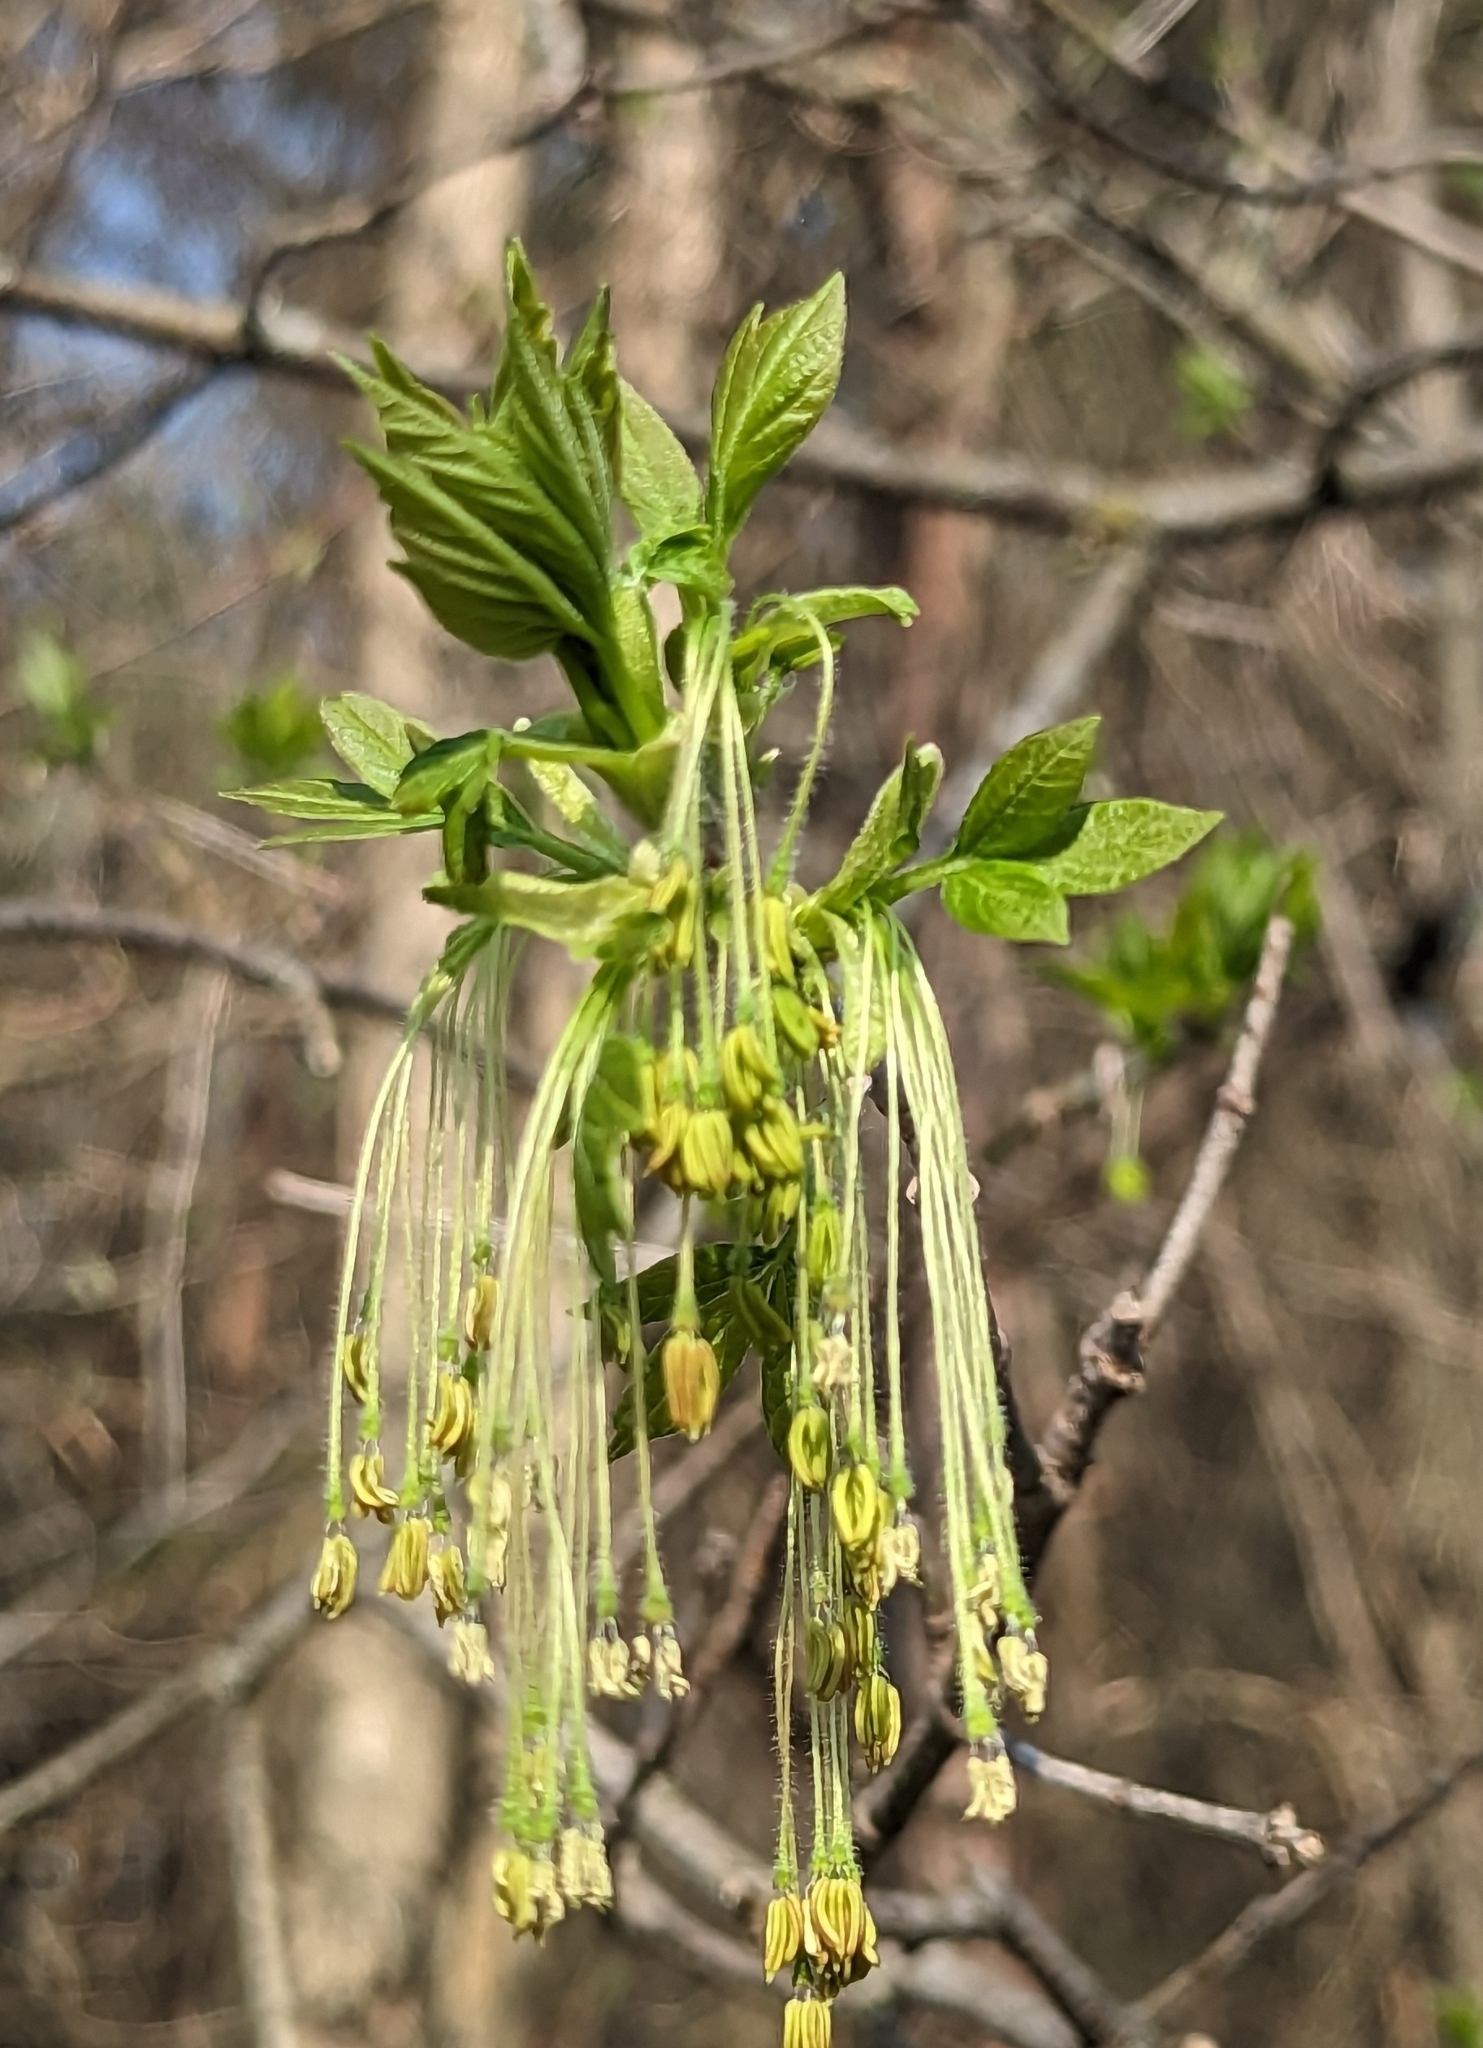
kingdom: Plantae
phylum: Tracheophyta
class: Magnoliopsida
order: Sapindales
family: Sapindaceae
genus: Acer
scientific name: Acer negundo
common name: Ashleaf maple
